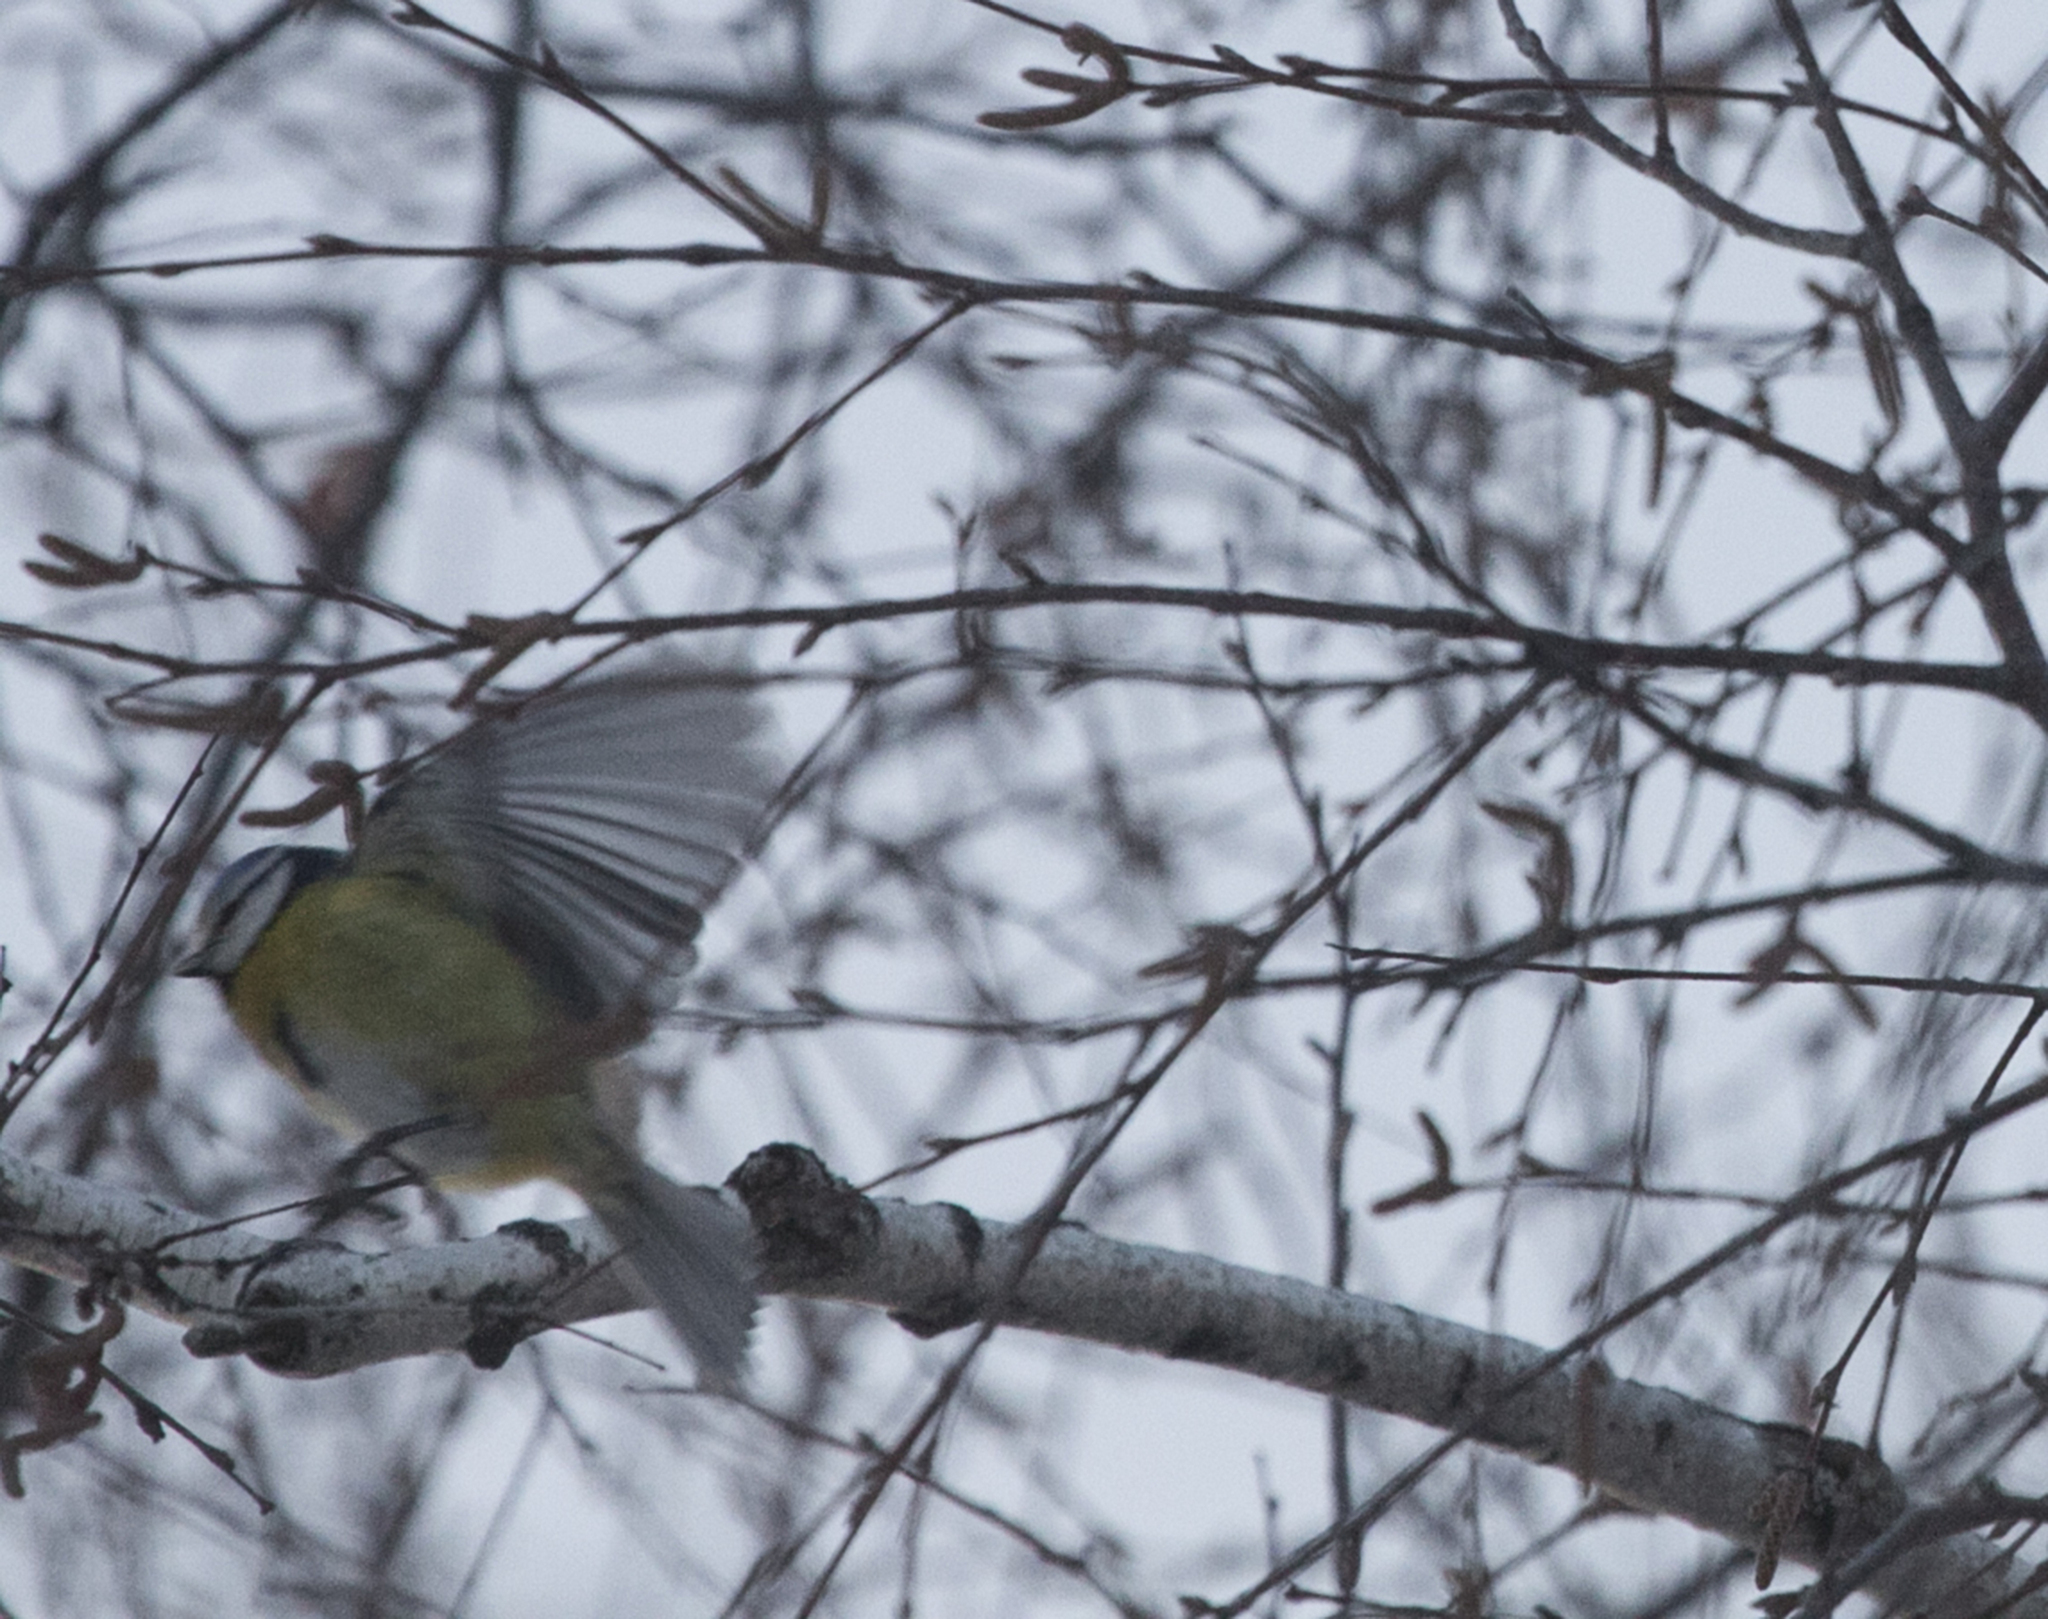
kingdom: Animalia
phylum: Chordata
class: Aves
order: Passeriformes
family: Paridae
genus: Cyanistes
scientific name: Cyanistes caeruleus
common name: Eurasian blue tit
